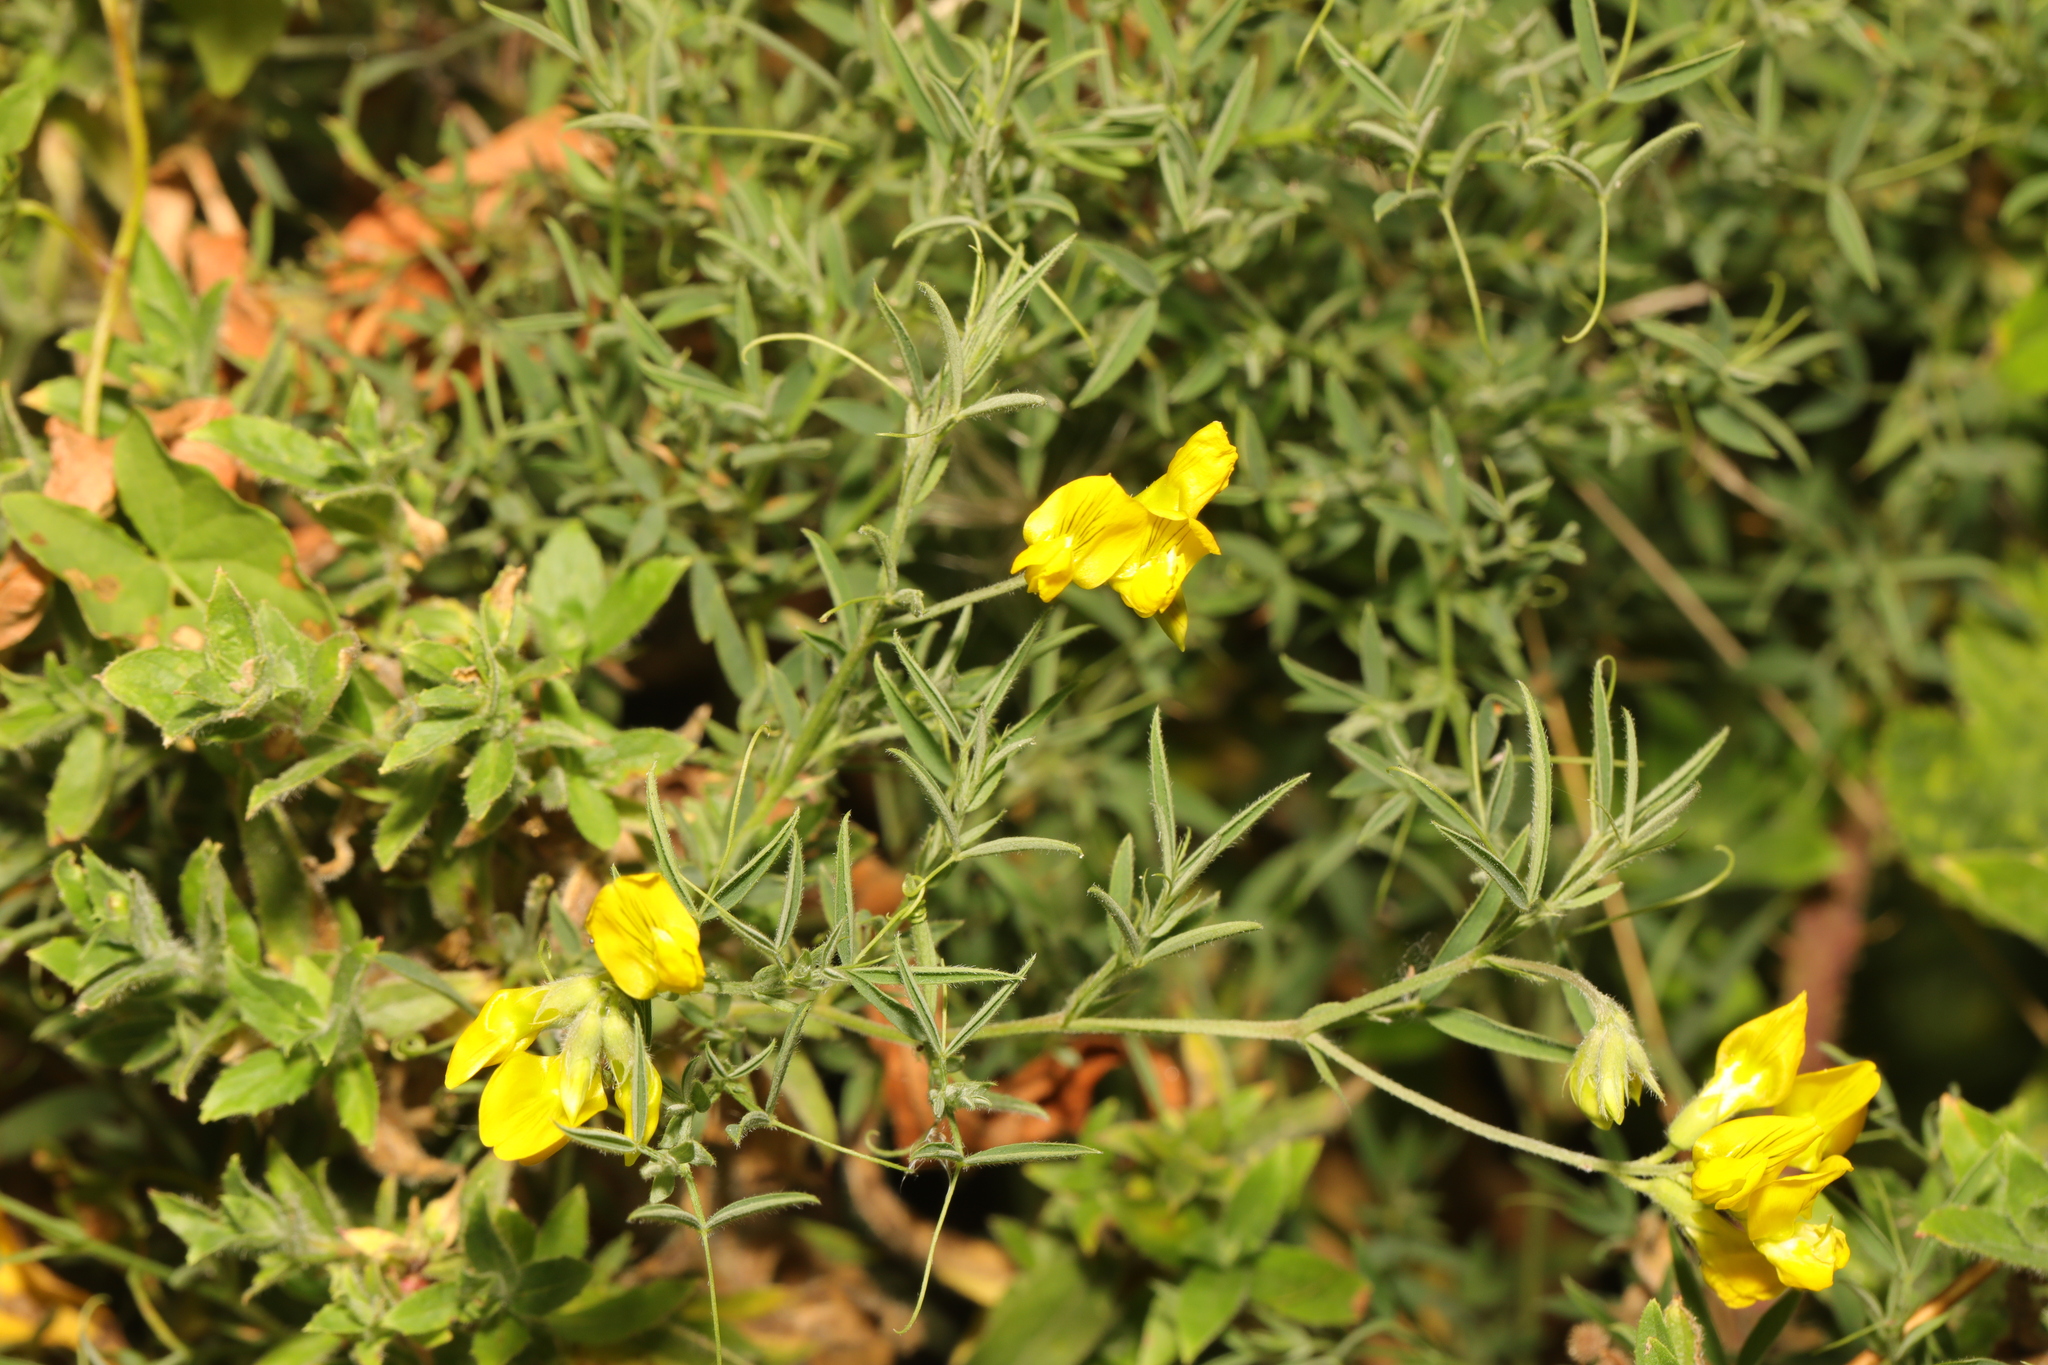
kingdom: Plantae
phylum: Tracheophyta
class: Magnoliopsida
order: Fabales
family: Fabaceae
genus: Lathyrus
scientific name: Lathyrus pratensis
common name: Meadow vetchling
